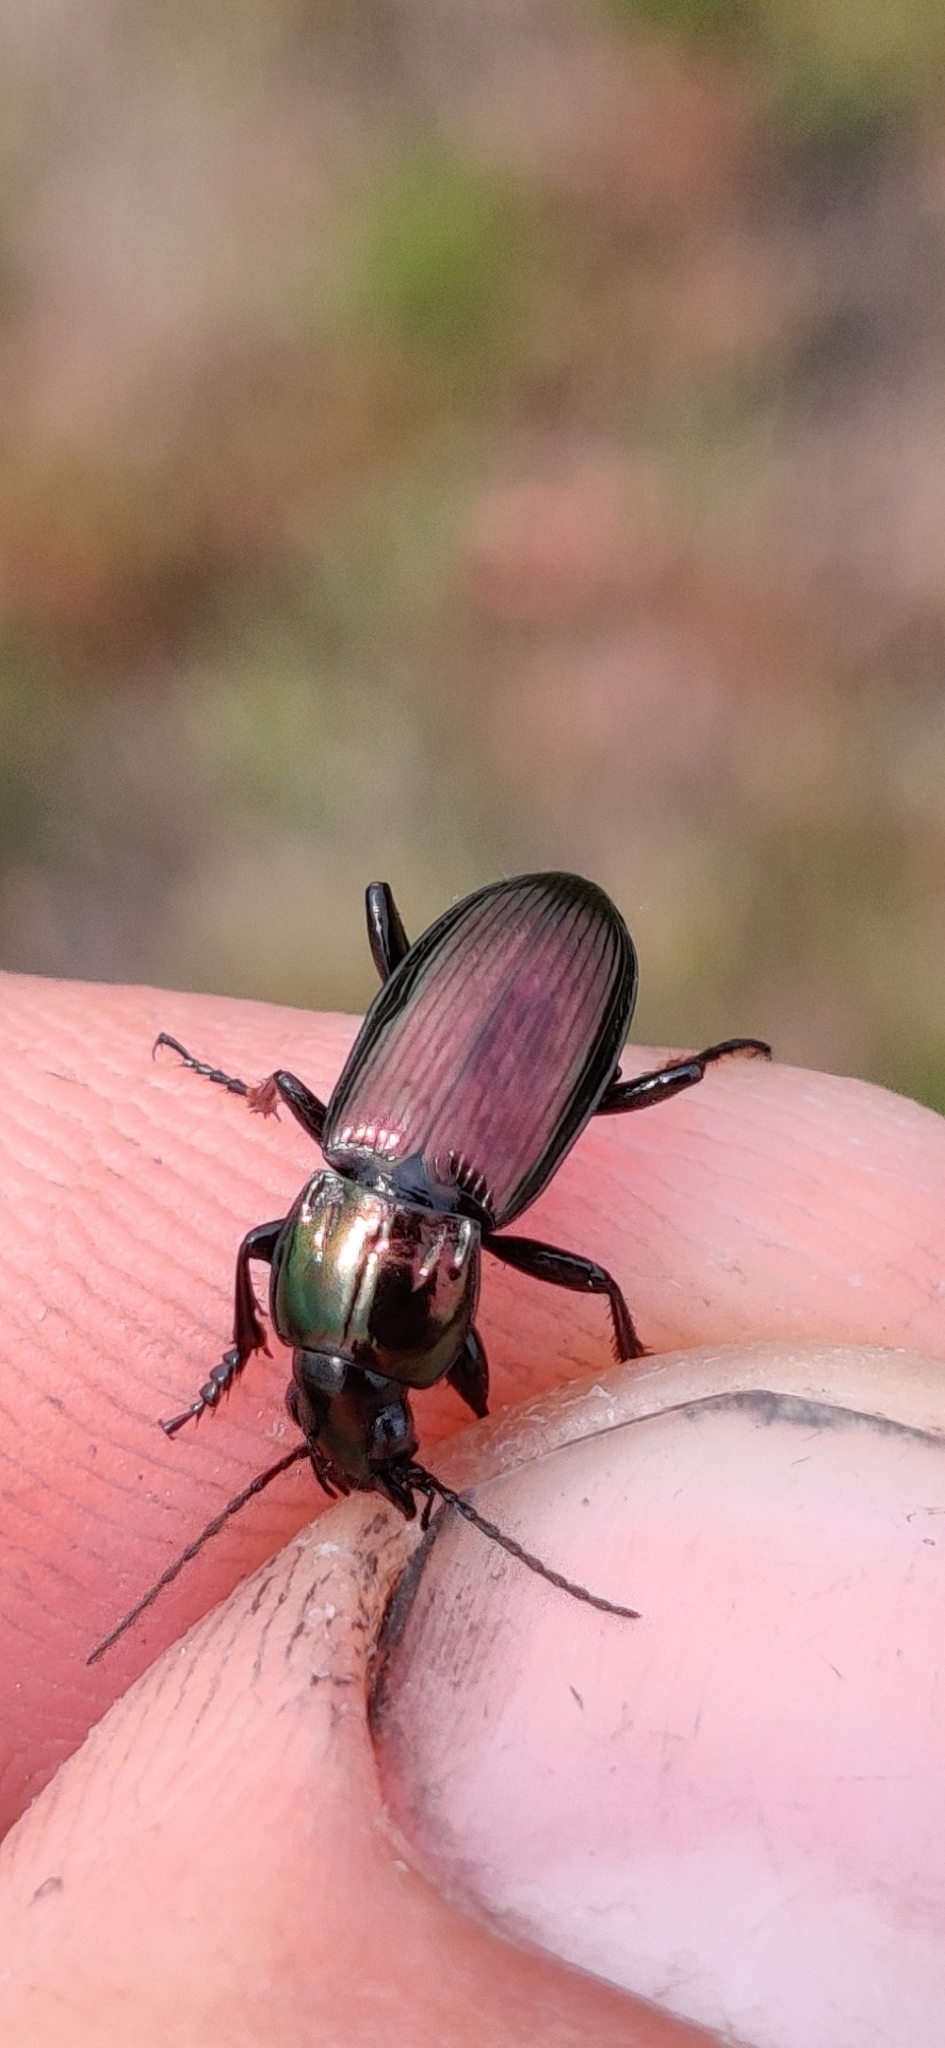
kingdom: Animalia
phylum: Arthropoda
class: Insecta
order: Coleoptera
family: Carabidae
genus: Poecilus
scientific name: Poecilus lepidus
